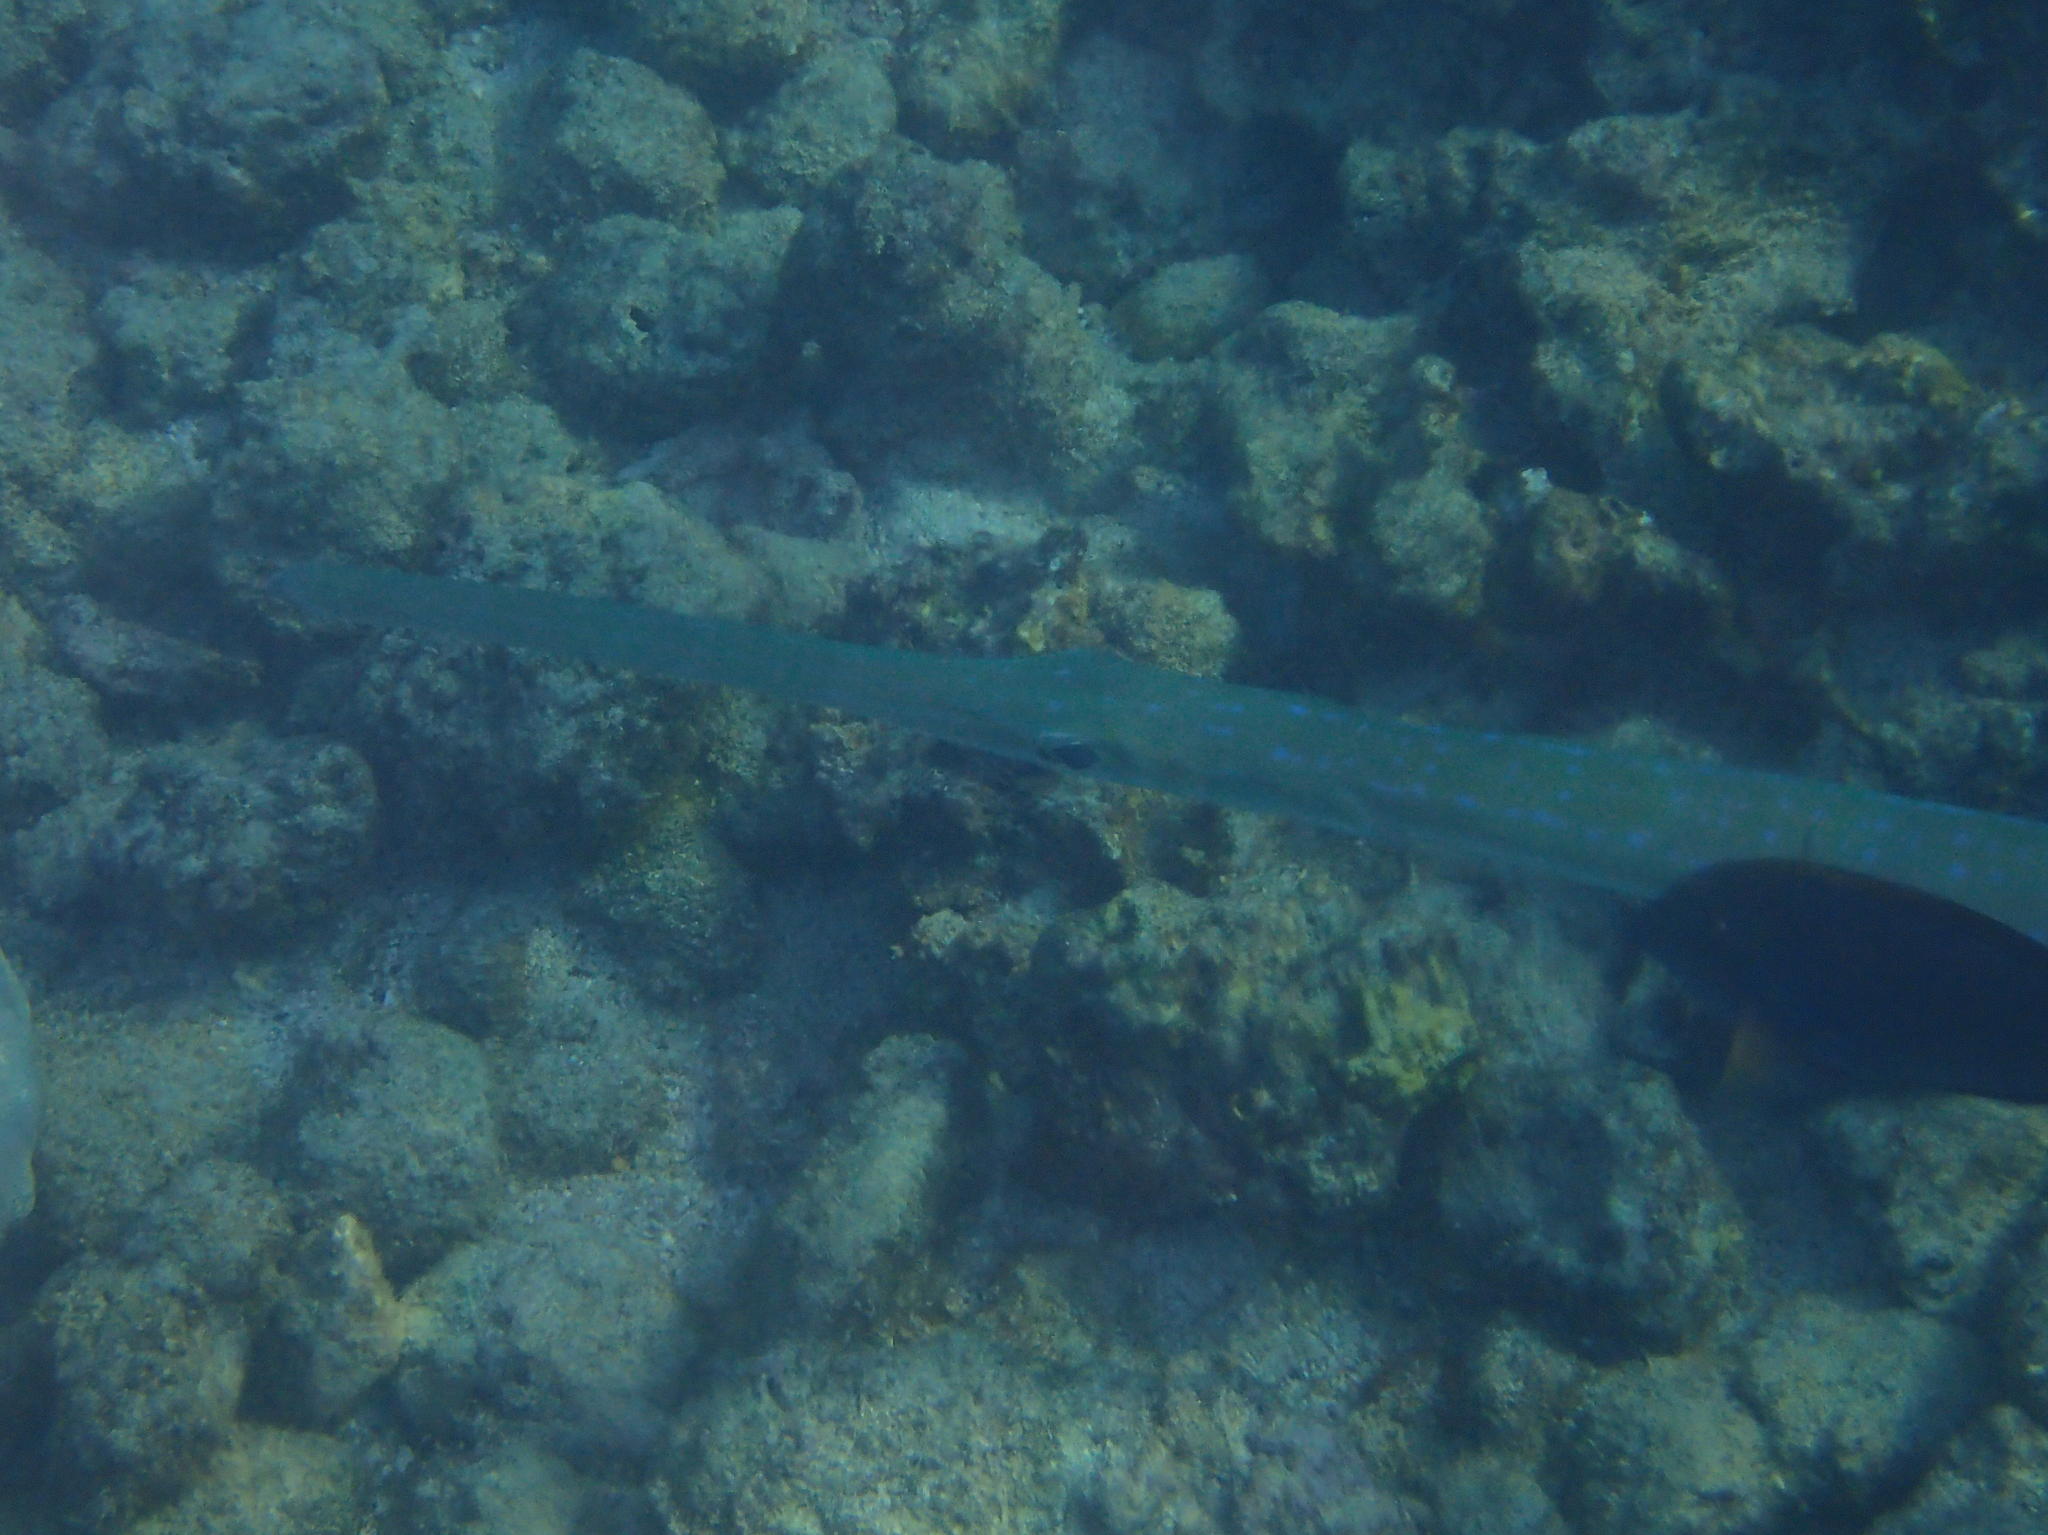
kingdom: Animalia
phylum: Chordata
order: Syngnathiformes
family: Fistulariidae
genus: Fistularia
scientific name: Fistularia commersonii
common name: Bluespotted cornetfish
